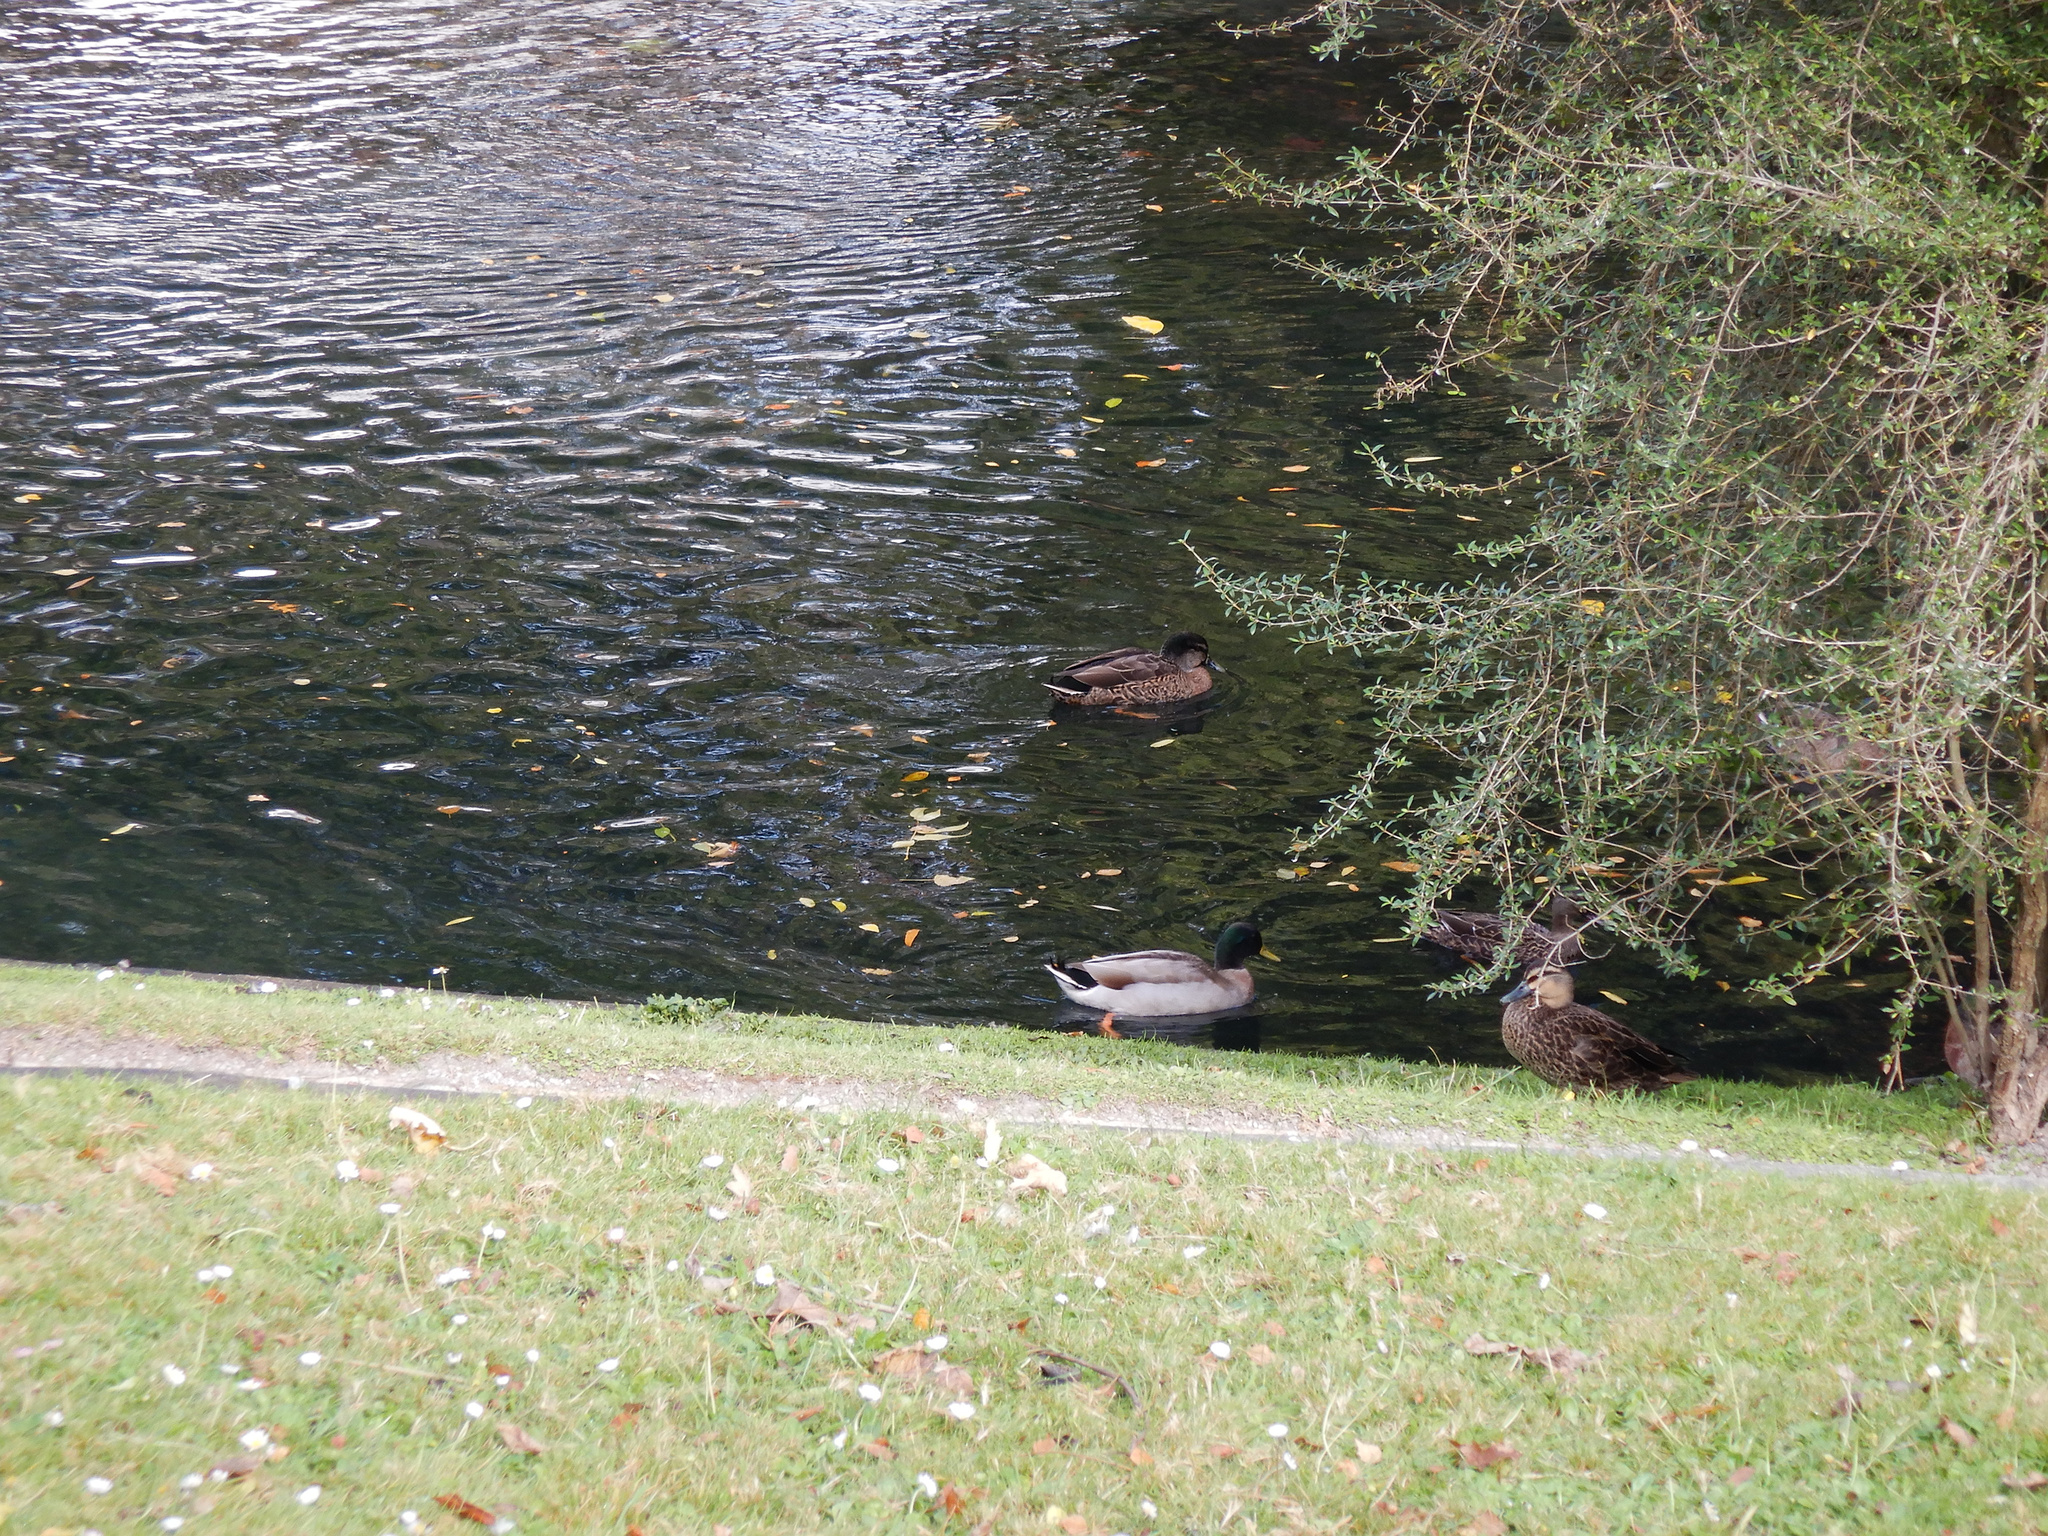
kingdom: Animalia
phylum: Chordata
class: Aves
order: Anseriformes
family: Anatidae
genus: Anas
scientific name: Anas platyrhynchos
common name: Mallard
